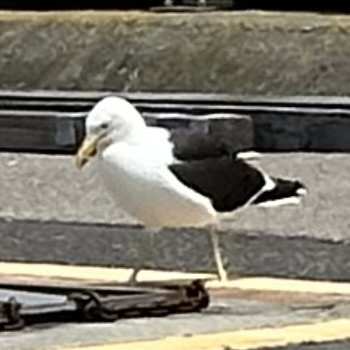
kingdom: Animalia
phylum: Chordata
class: Aves
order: Charadriiformes
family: Laridae
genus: Larus
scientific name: Larus dominicanus
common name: Kelp gull
